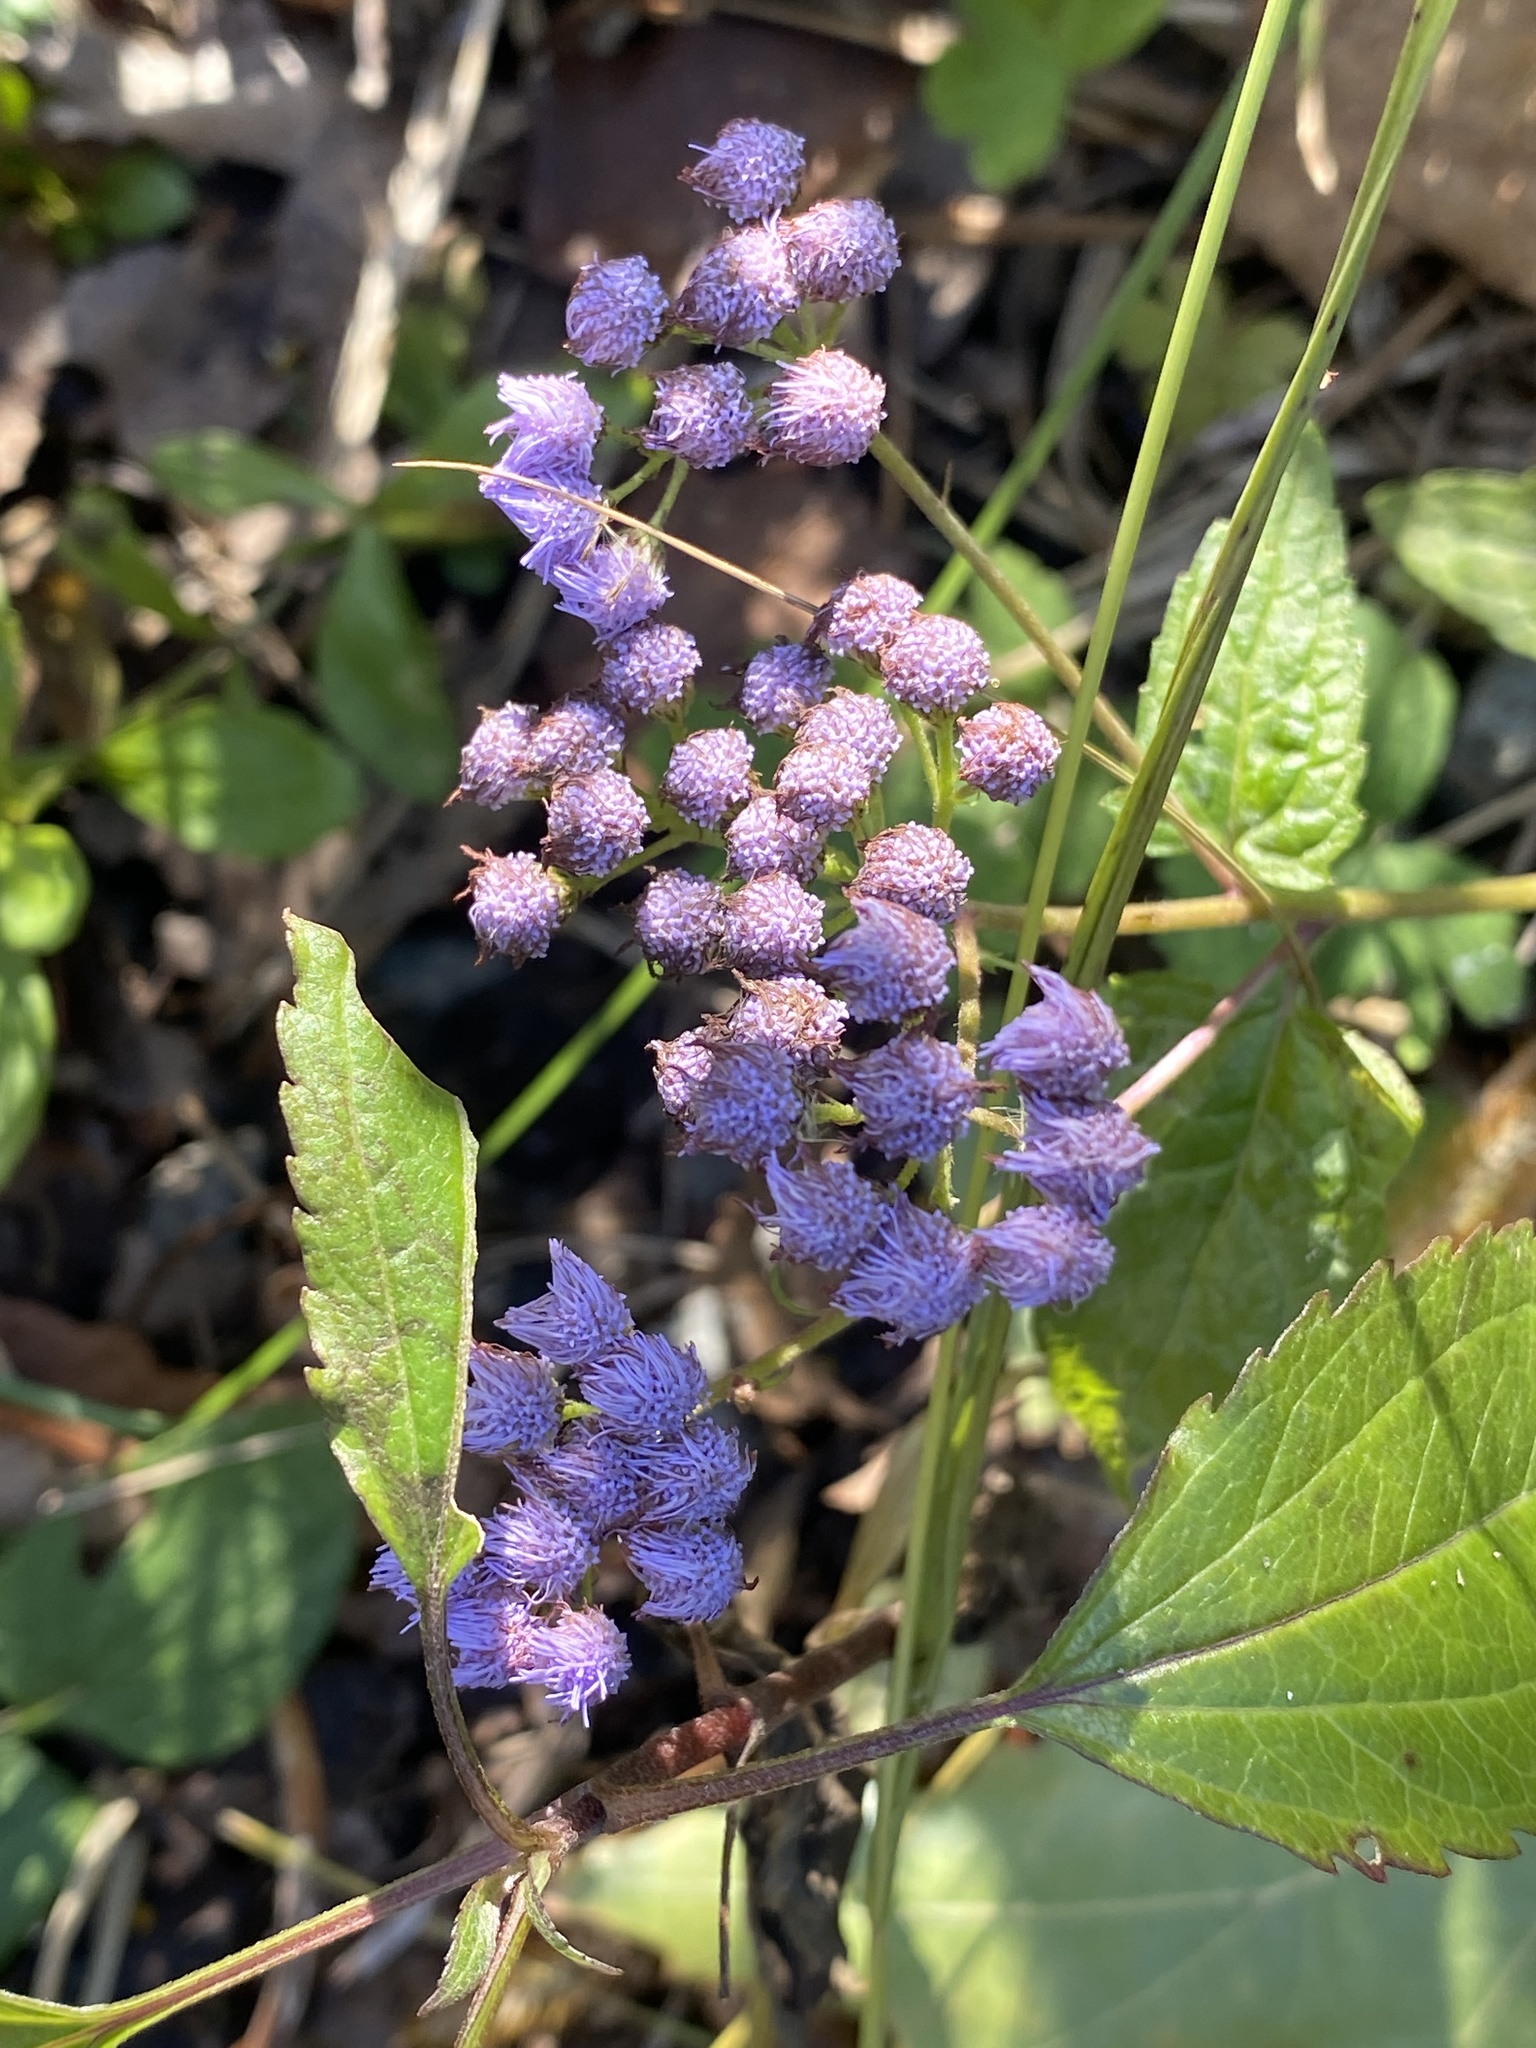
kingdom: Plantae
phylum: Tracheophyta
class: Magnoliopsida
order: Asterales
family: Asteraceae
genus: Conoclinium
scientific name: Conoclinium coelestinum
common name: Blue mistflower
